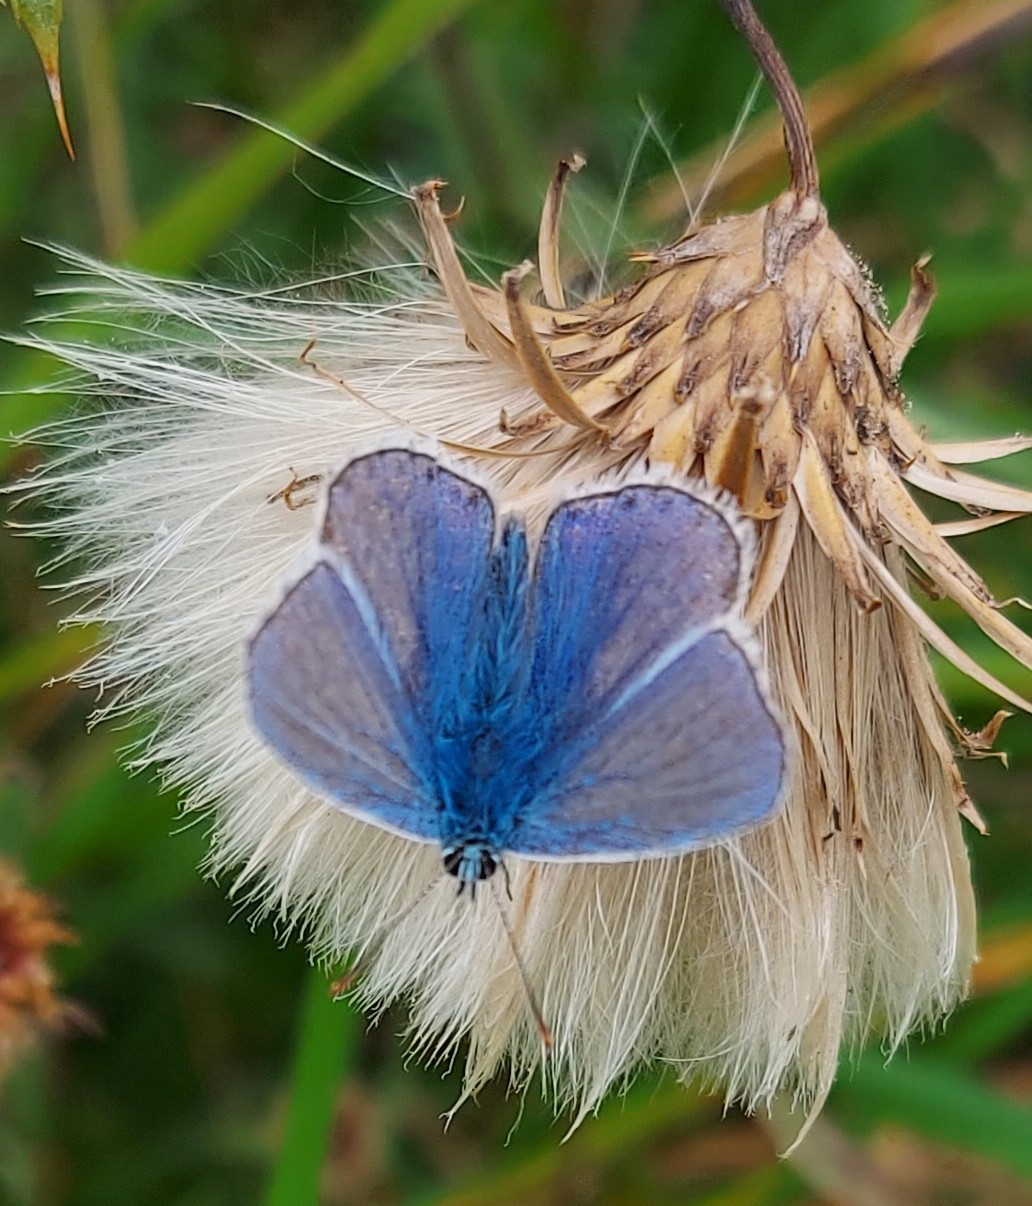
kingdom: Animalia
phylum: Arthropoda
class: Insecta
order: Lepidoptera
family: Lycaenidae
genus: Polyommatus
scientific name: Polyommatus icarus
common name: Common blue
